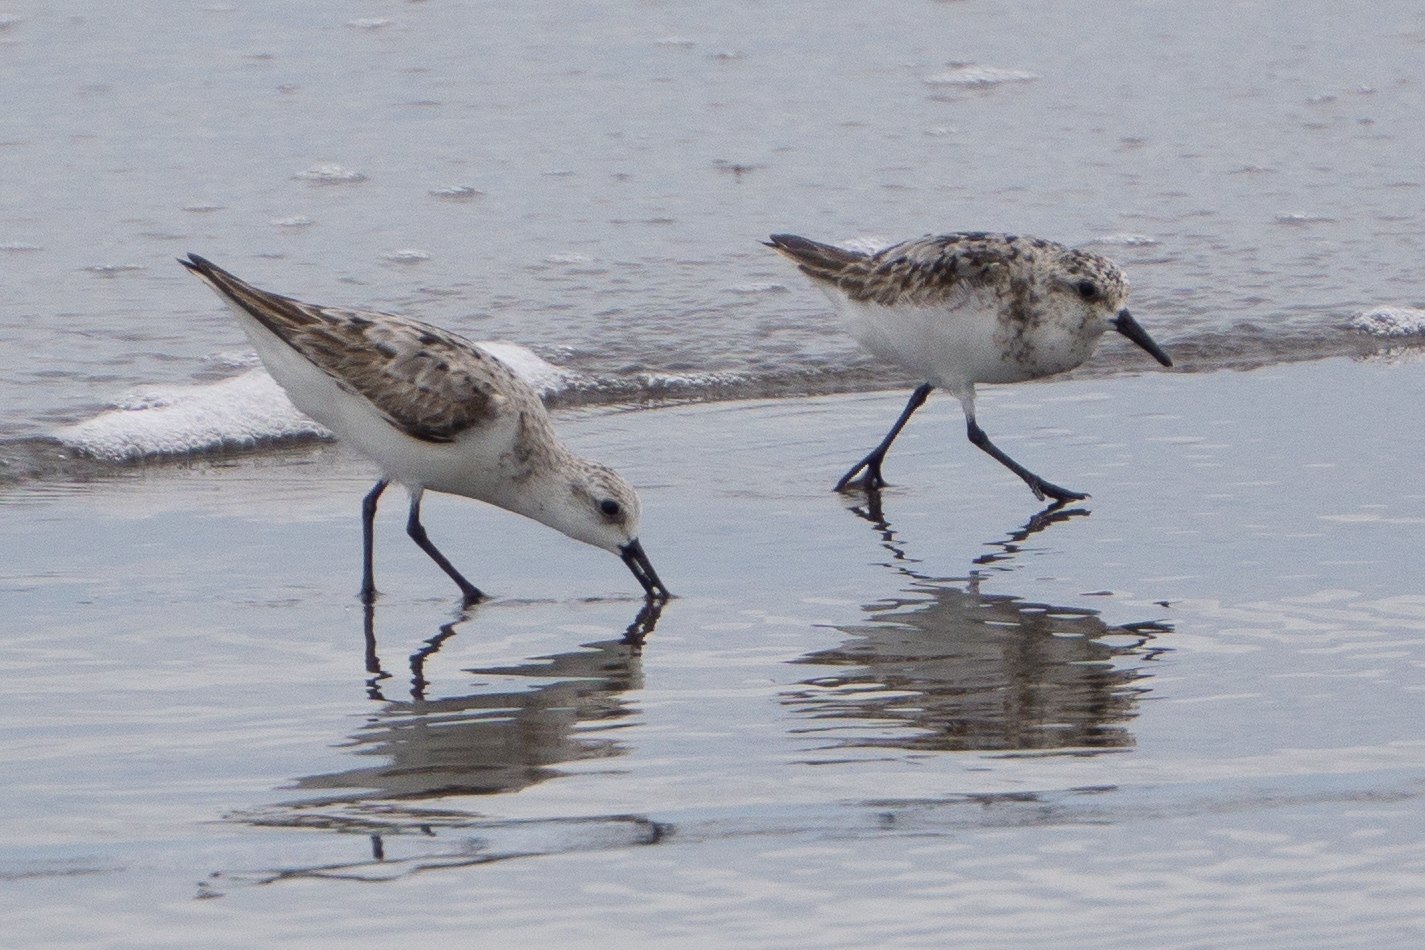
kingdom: Animalia
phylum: Chordata
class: Aves
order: Charadriiformes
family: Scolopacidae
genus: Calidris
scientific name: Calidris alba
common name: Sanderling
